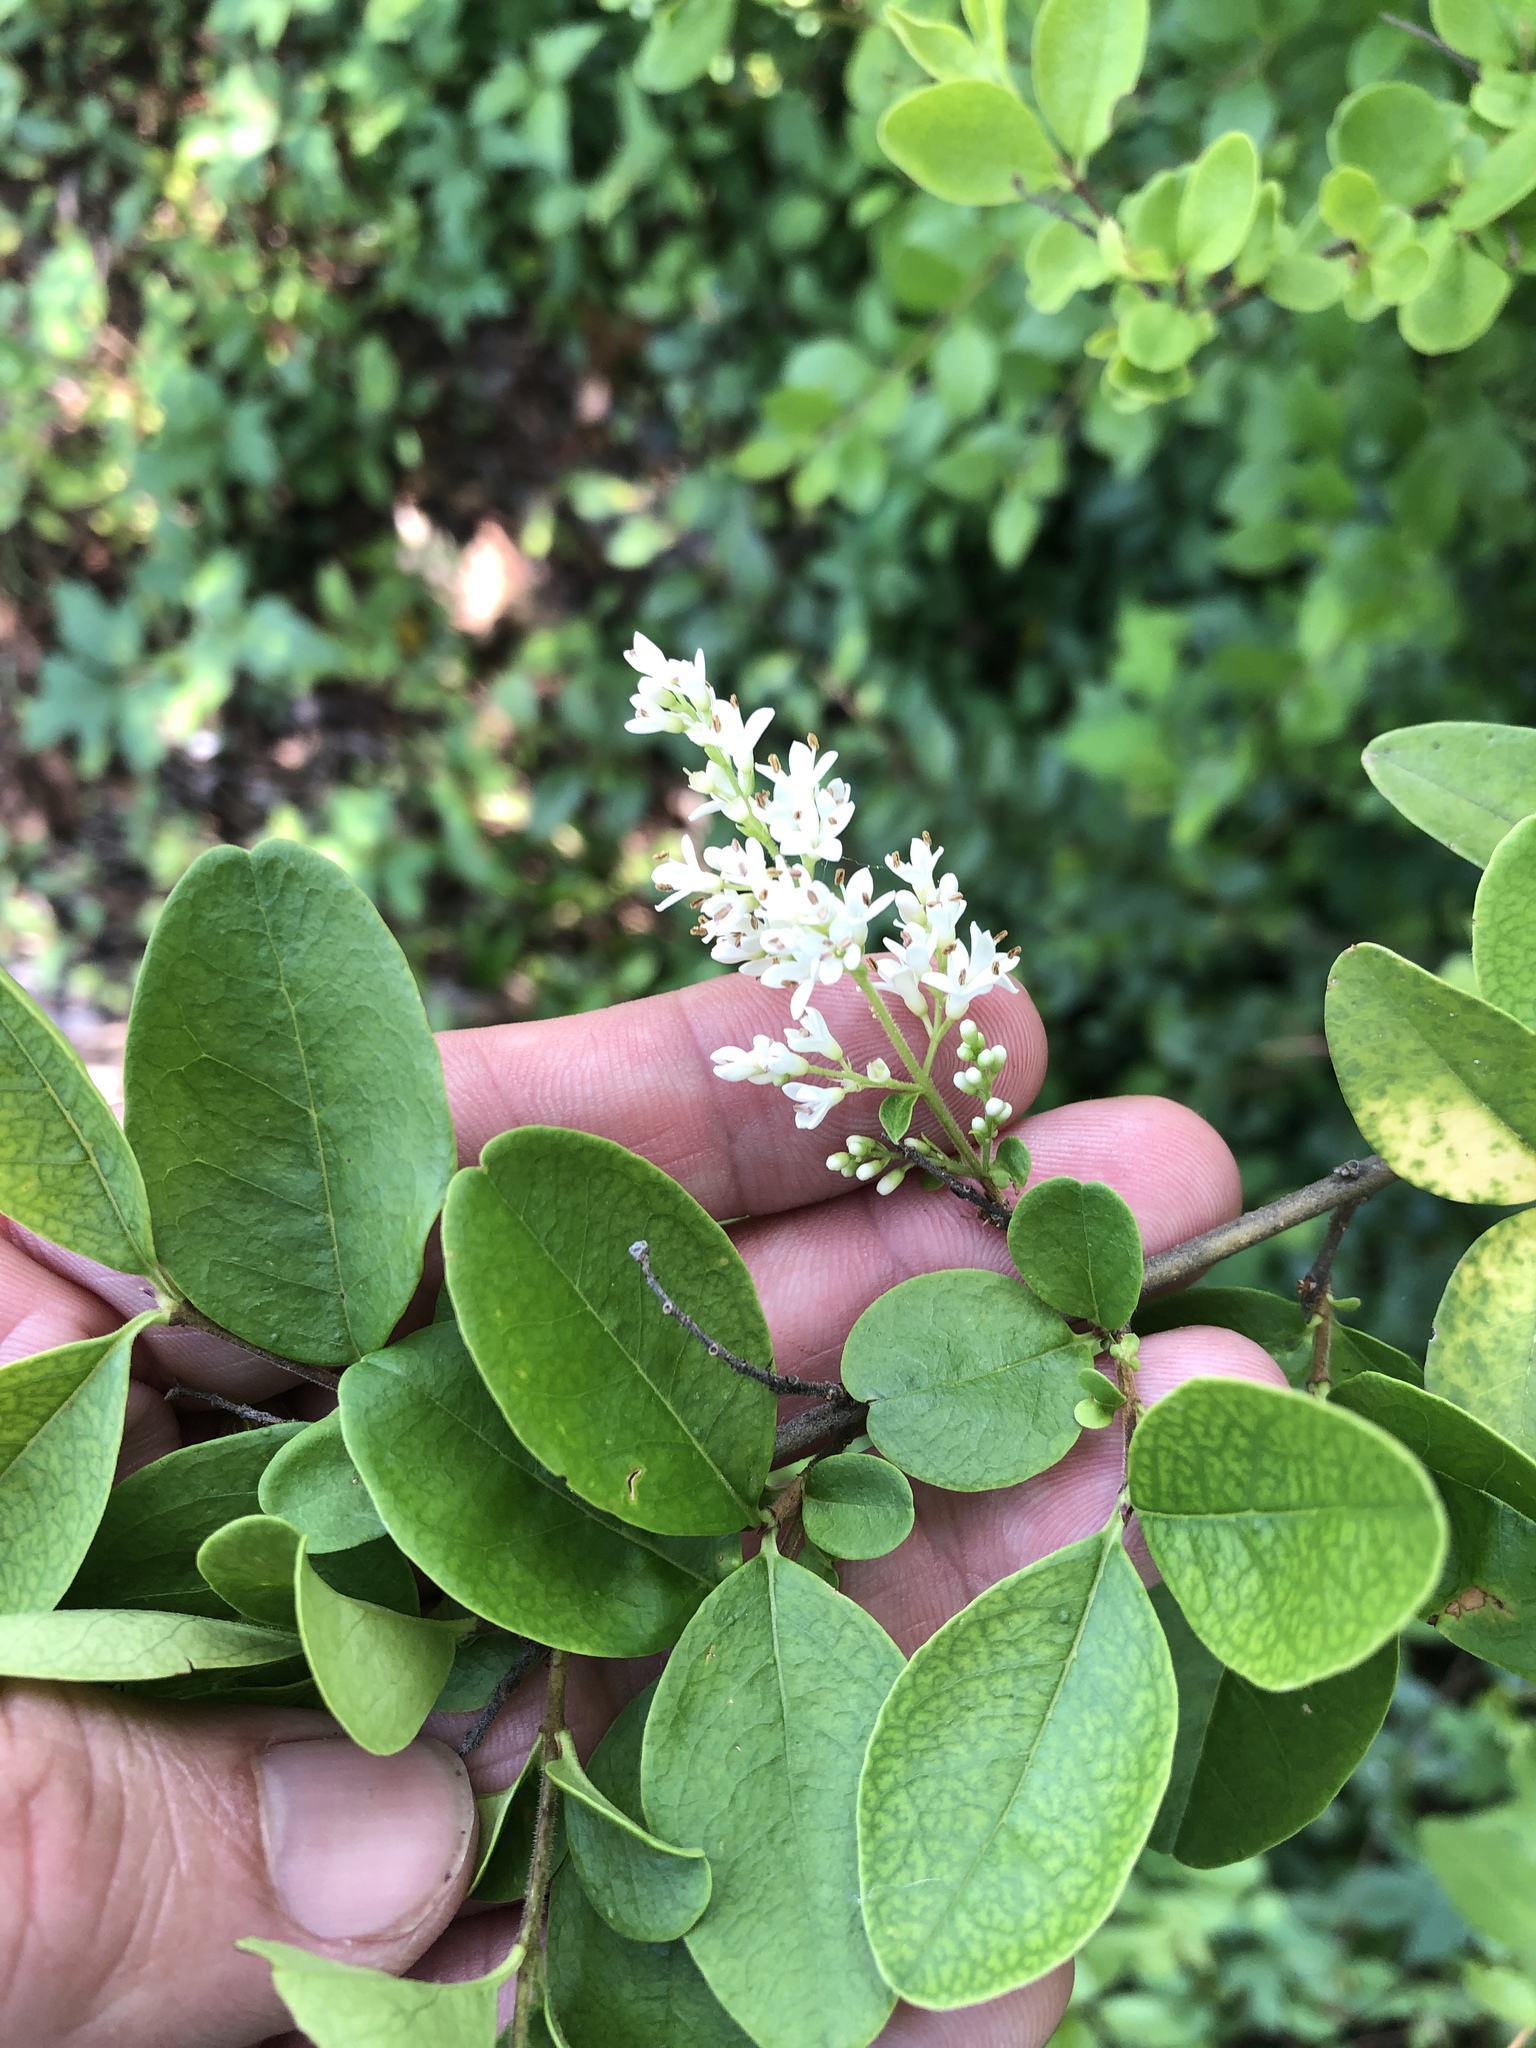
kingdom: Plantae
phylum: Tracheophyta
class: Magnoliopsida
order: Lamiales
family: Oleaceae
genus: Ligustrum
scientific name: Ligustrum sinense
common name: Chinese privet
